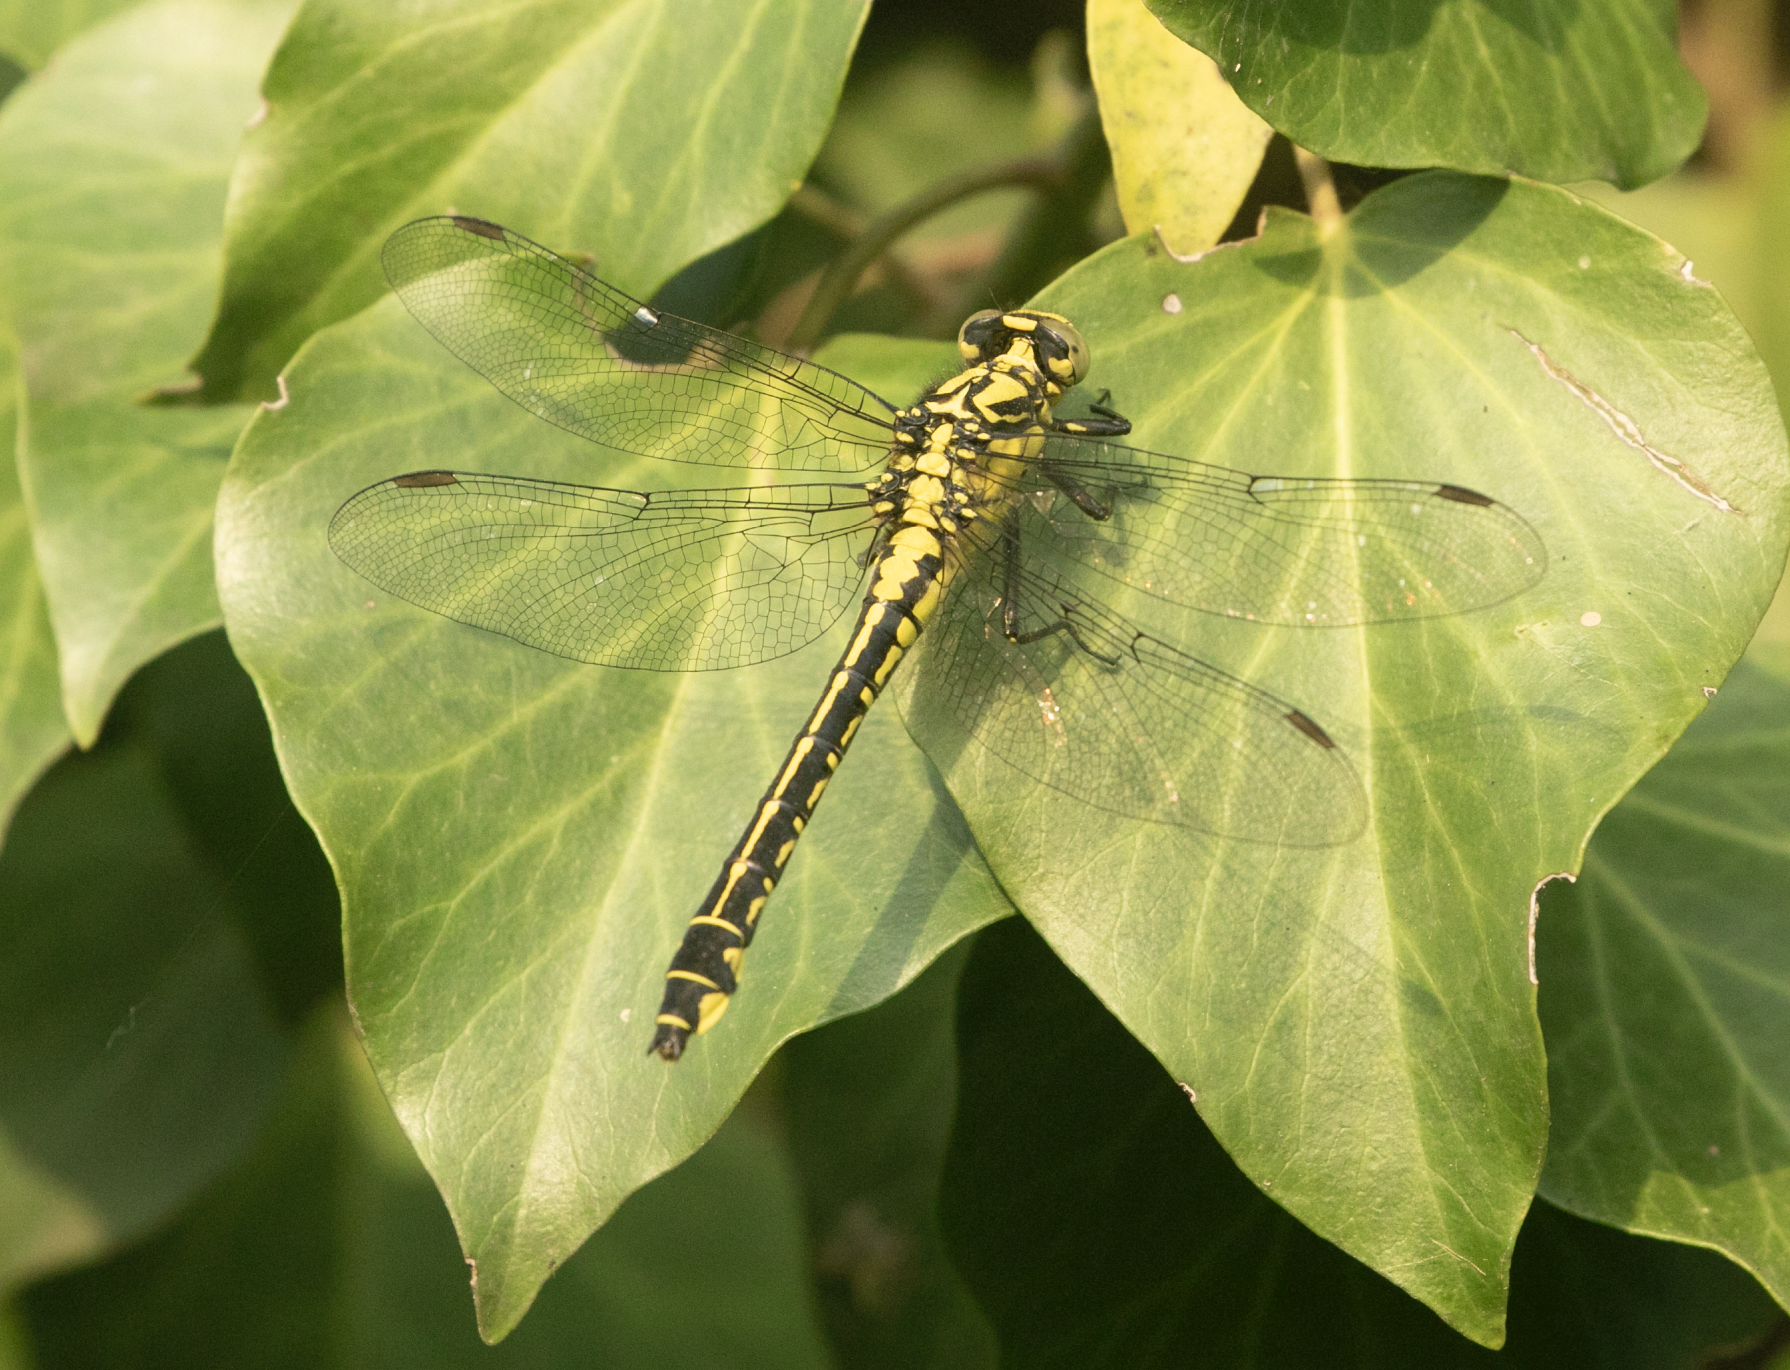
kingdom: Animalia
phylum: Arthropoda
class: Insecta
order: Odonata
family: Gomphidae
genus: Gomphus
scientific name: Gomphus vulgatissimus
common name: Club-tailed dragonfly
